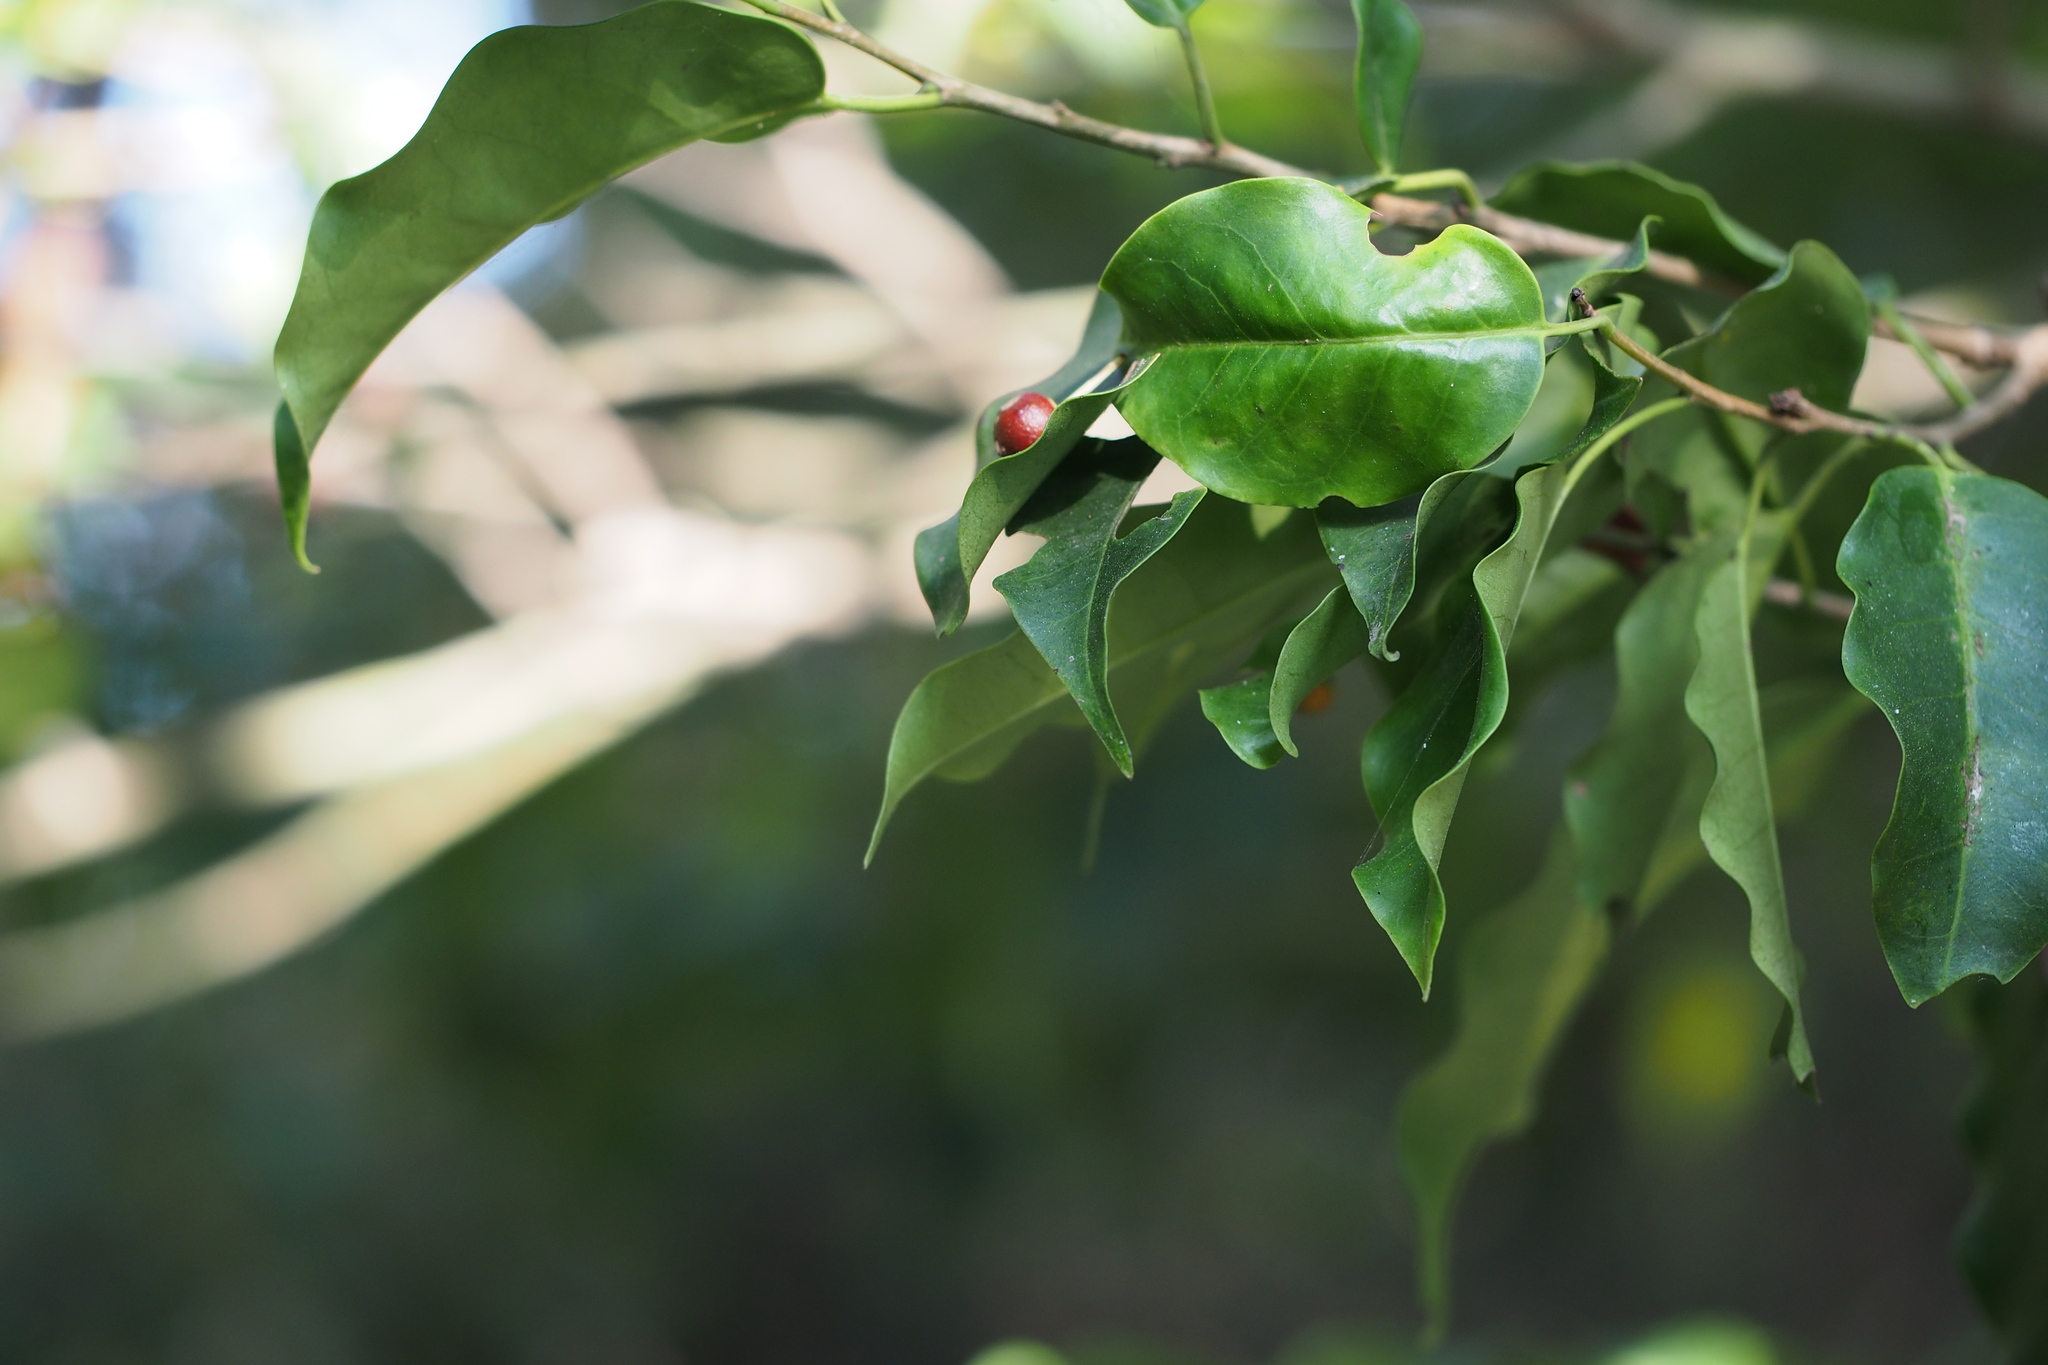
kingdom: Plantae
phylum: Tracheophyta
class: Magnoliopsida
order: Aquifoliales
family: Aquifoliaceae
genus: Ilex
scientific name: Ilex pedunculosa
